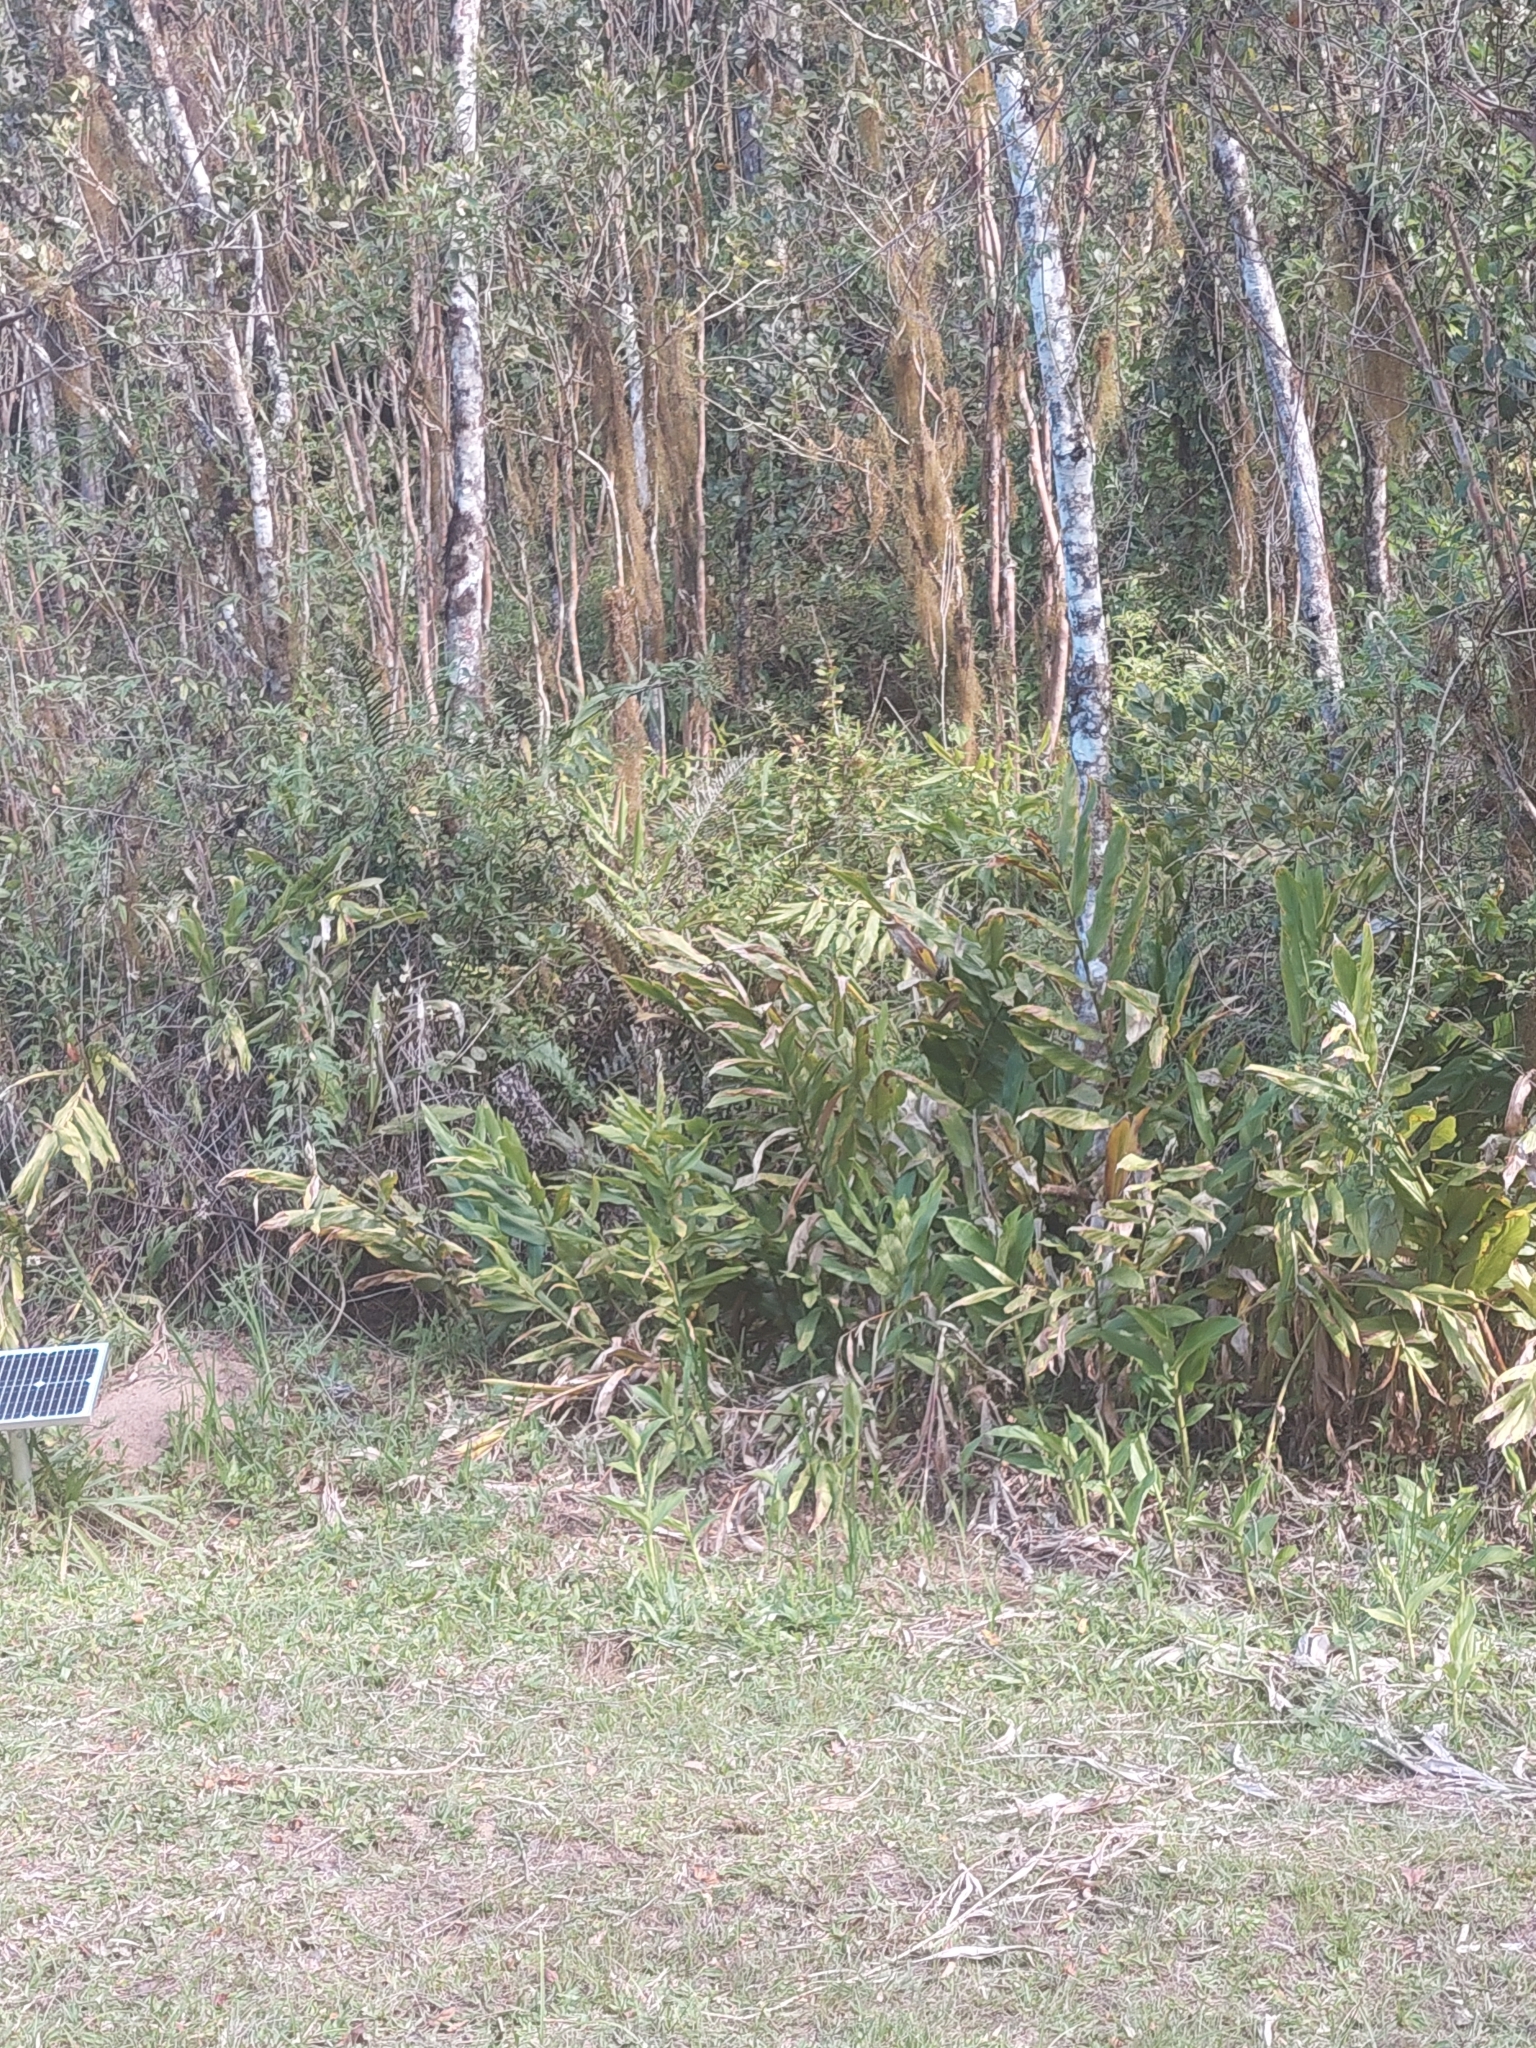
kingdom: Plantae
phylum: Tracheophyta
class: Liliopsida
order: Zingiberales
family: Zingiberaceae
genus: Hedychium
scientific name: Hedychium coronarium
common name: White garland-lily
